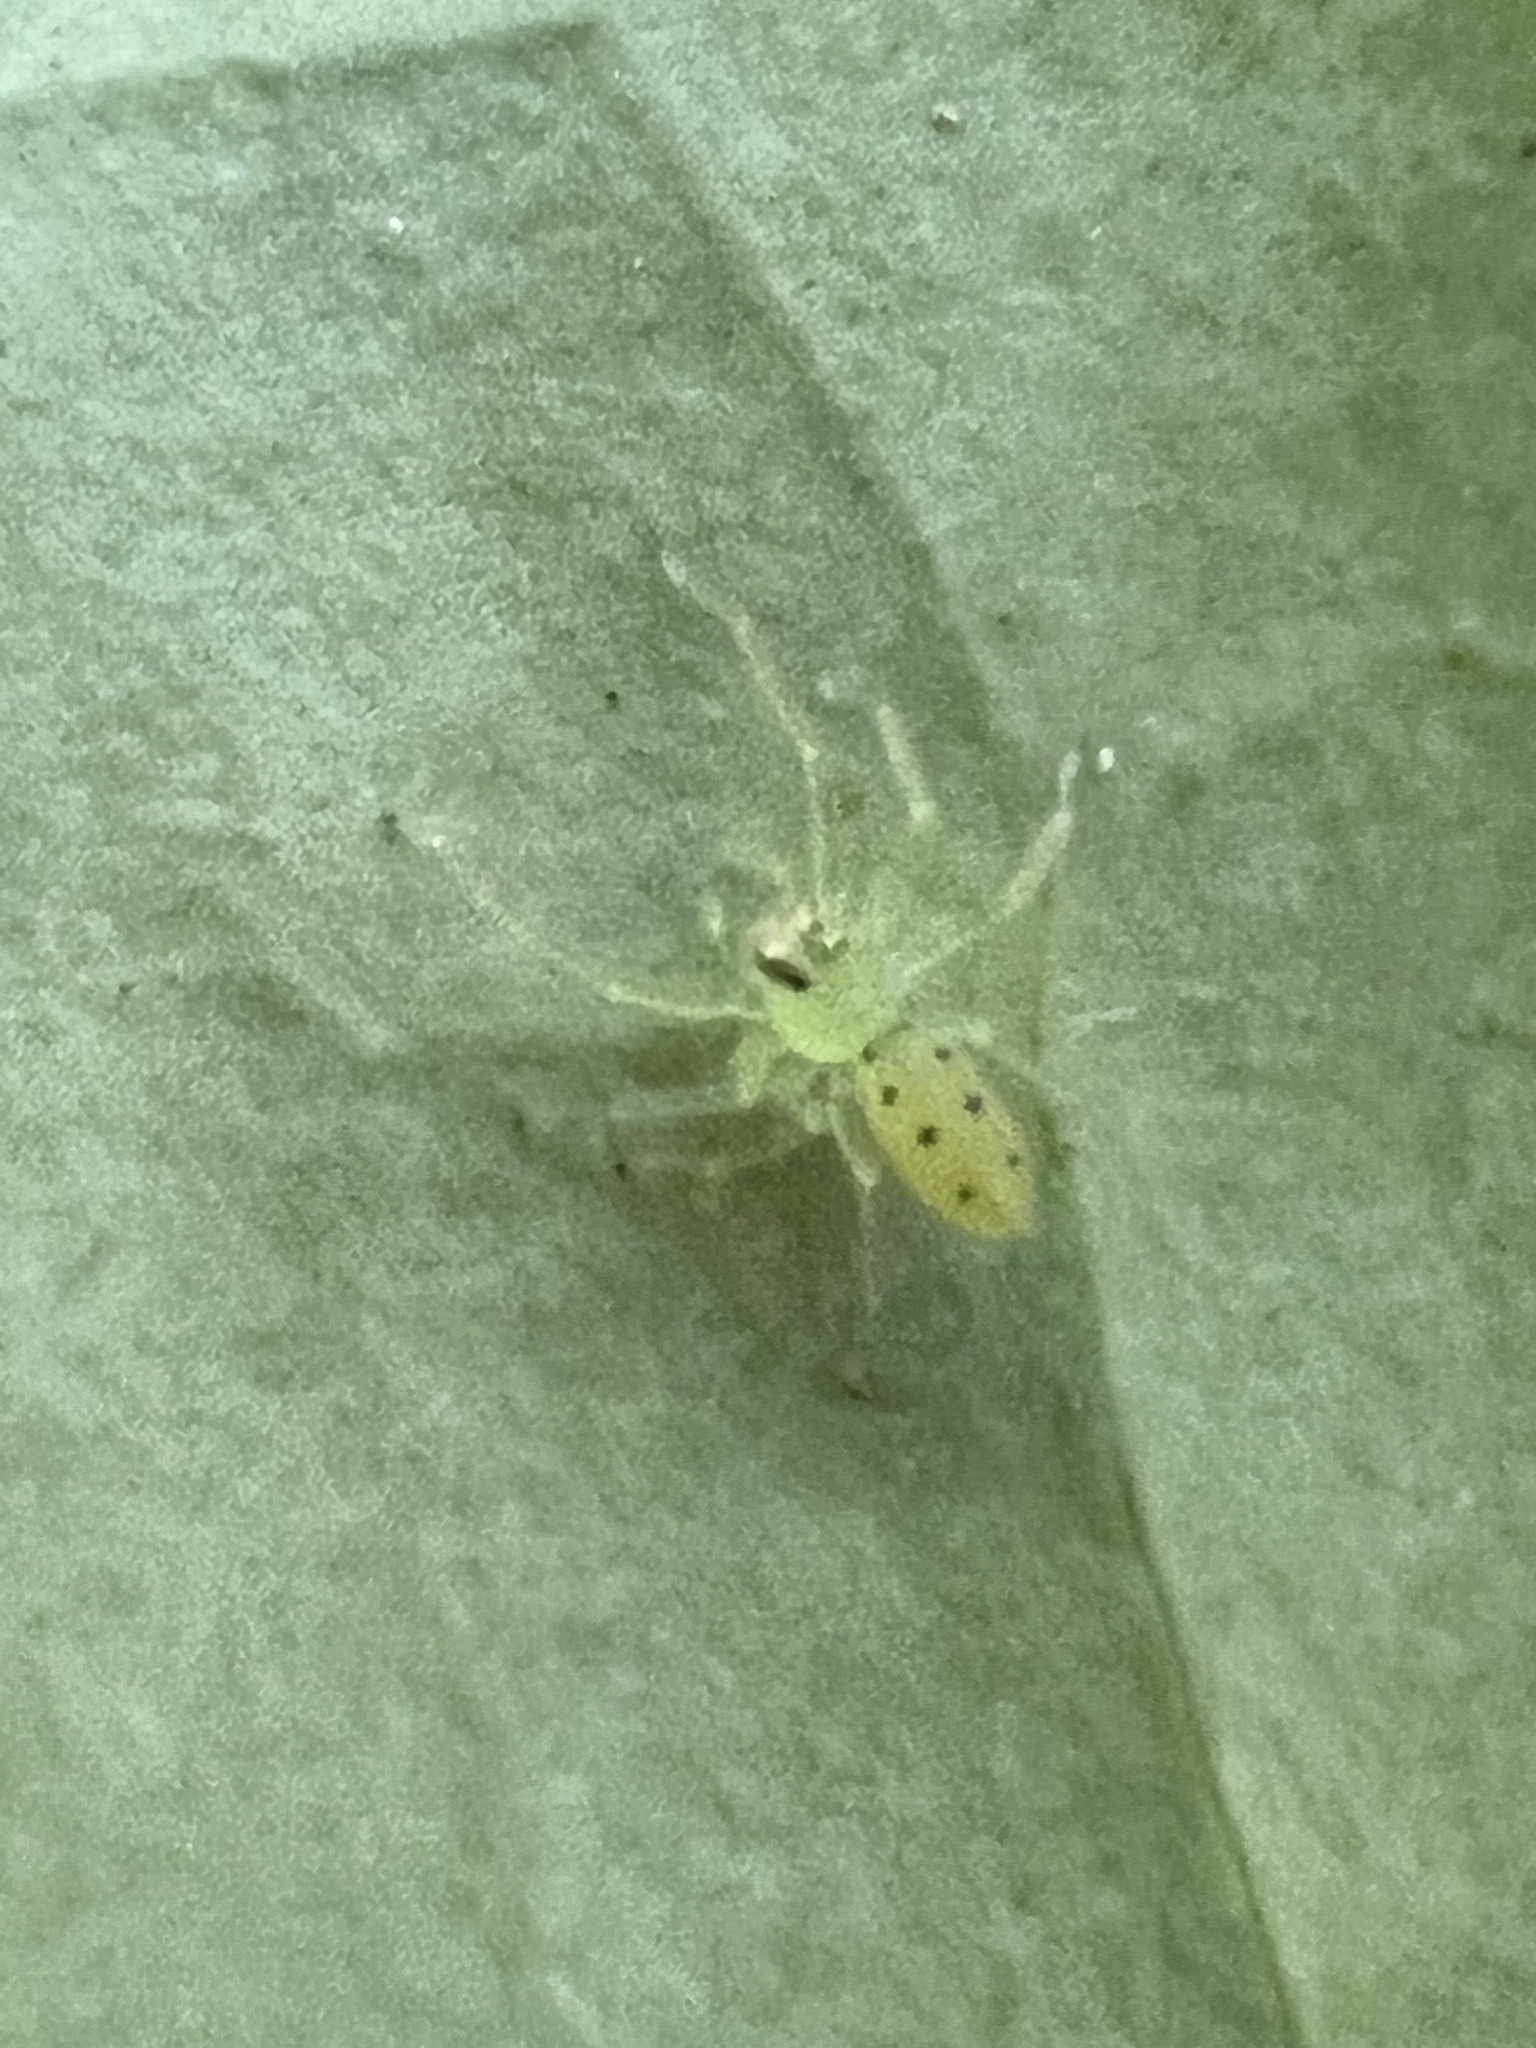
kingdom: Animalia
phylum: Arthropoda
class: Arachnida
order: Araneae
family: Salticidae
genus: Lyssomanes
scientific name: Lyssomanes viridis
